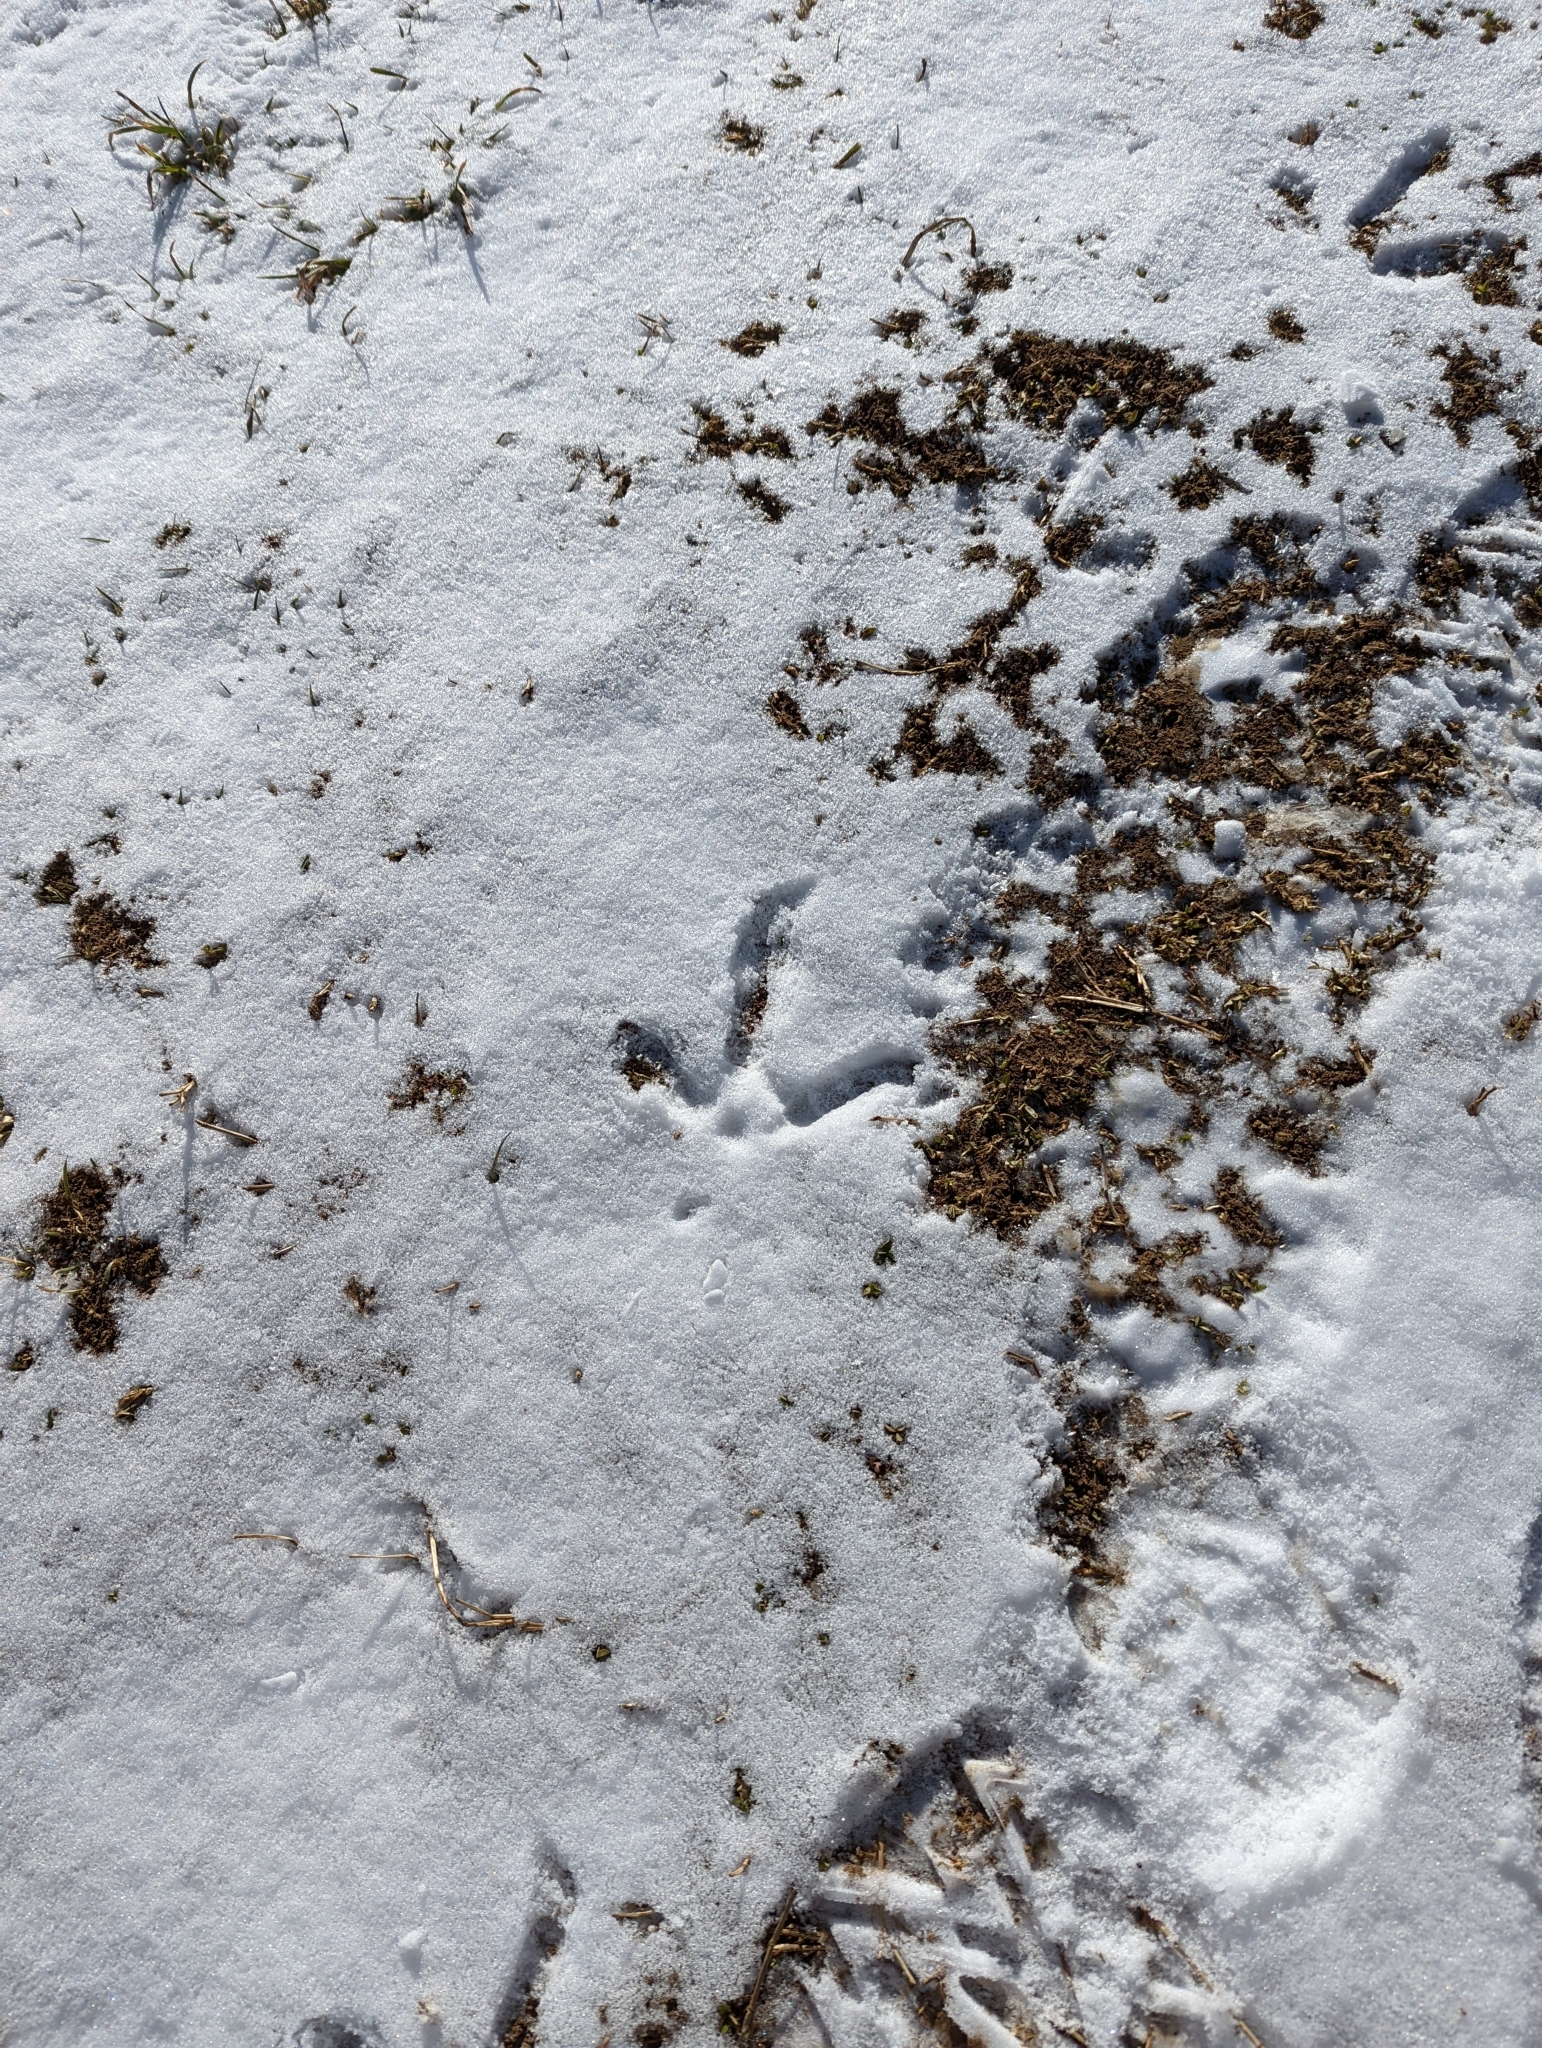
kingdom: Animalia
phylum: Chordata
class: Aves
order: Galliformes
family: Phasianidae
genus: Meleagris
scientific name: Meleagris gallopavo
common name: Wild turkey
